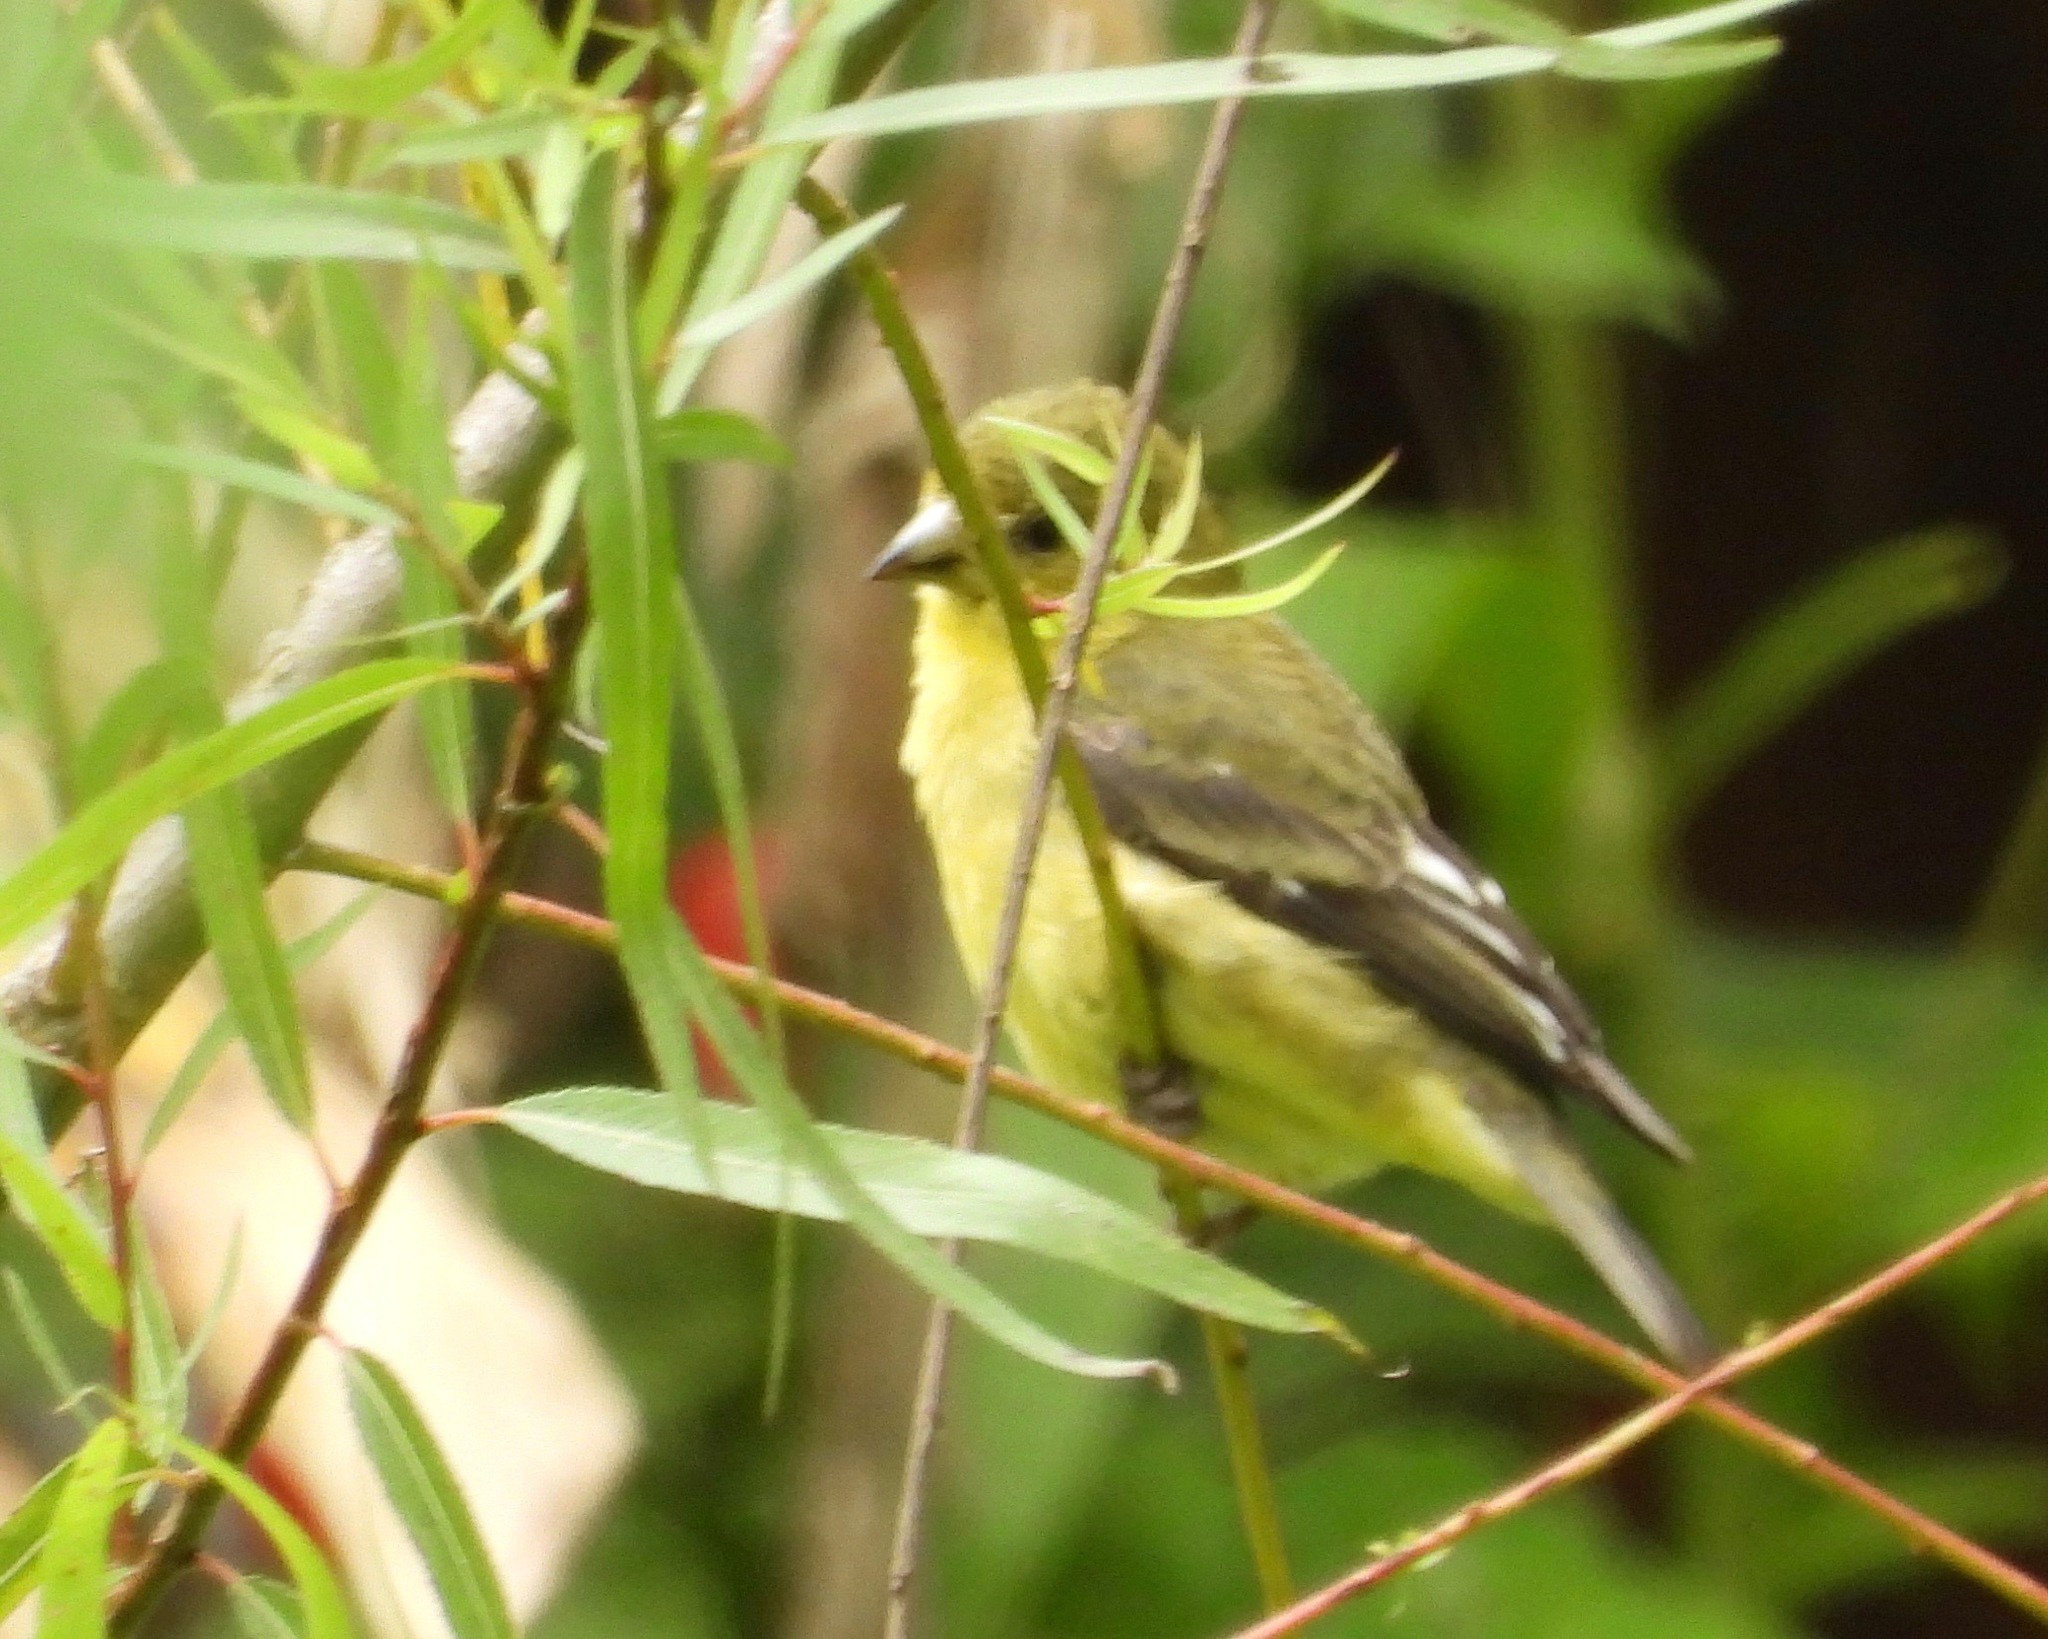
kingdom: Animalia
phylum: Chordata
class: Aves
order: Passeriformes
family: Fringillidae
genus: Spinus
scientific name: Spinus psaltria
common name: Lesser goldfinch
